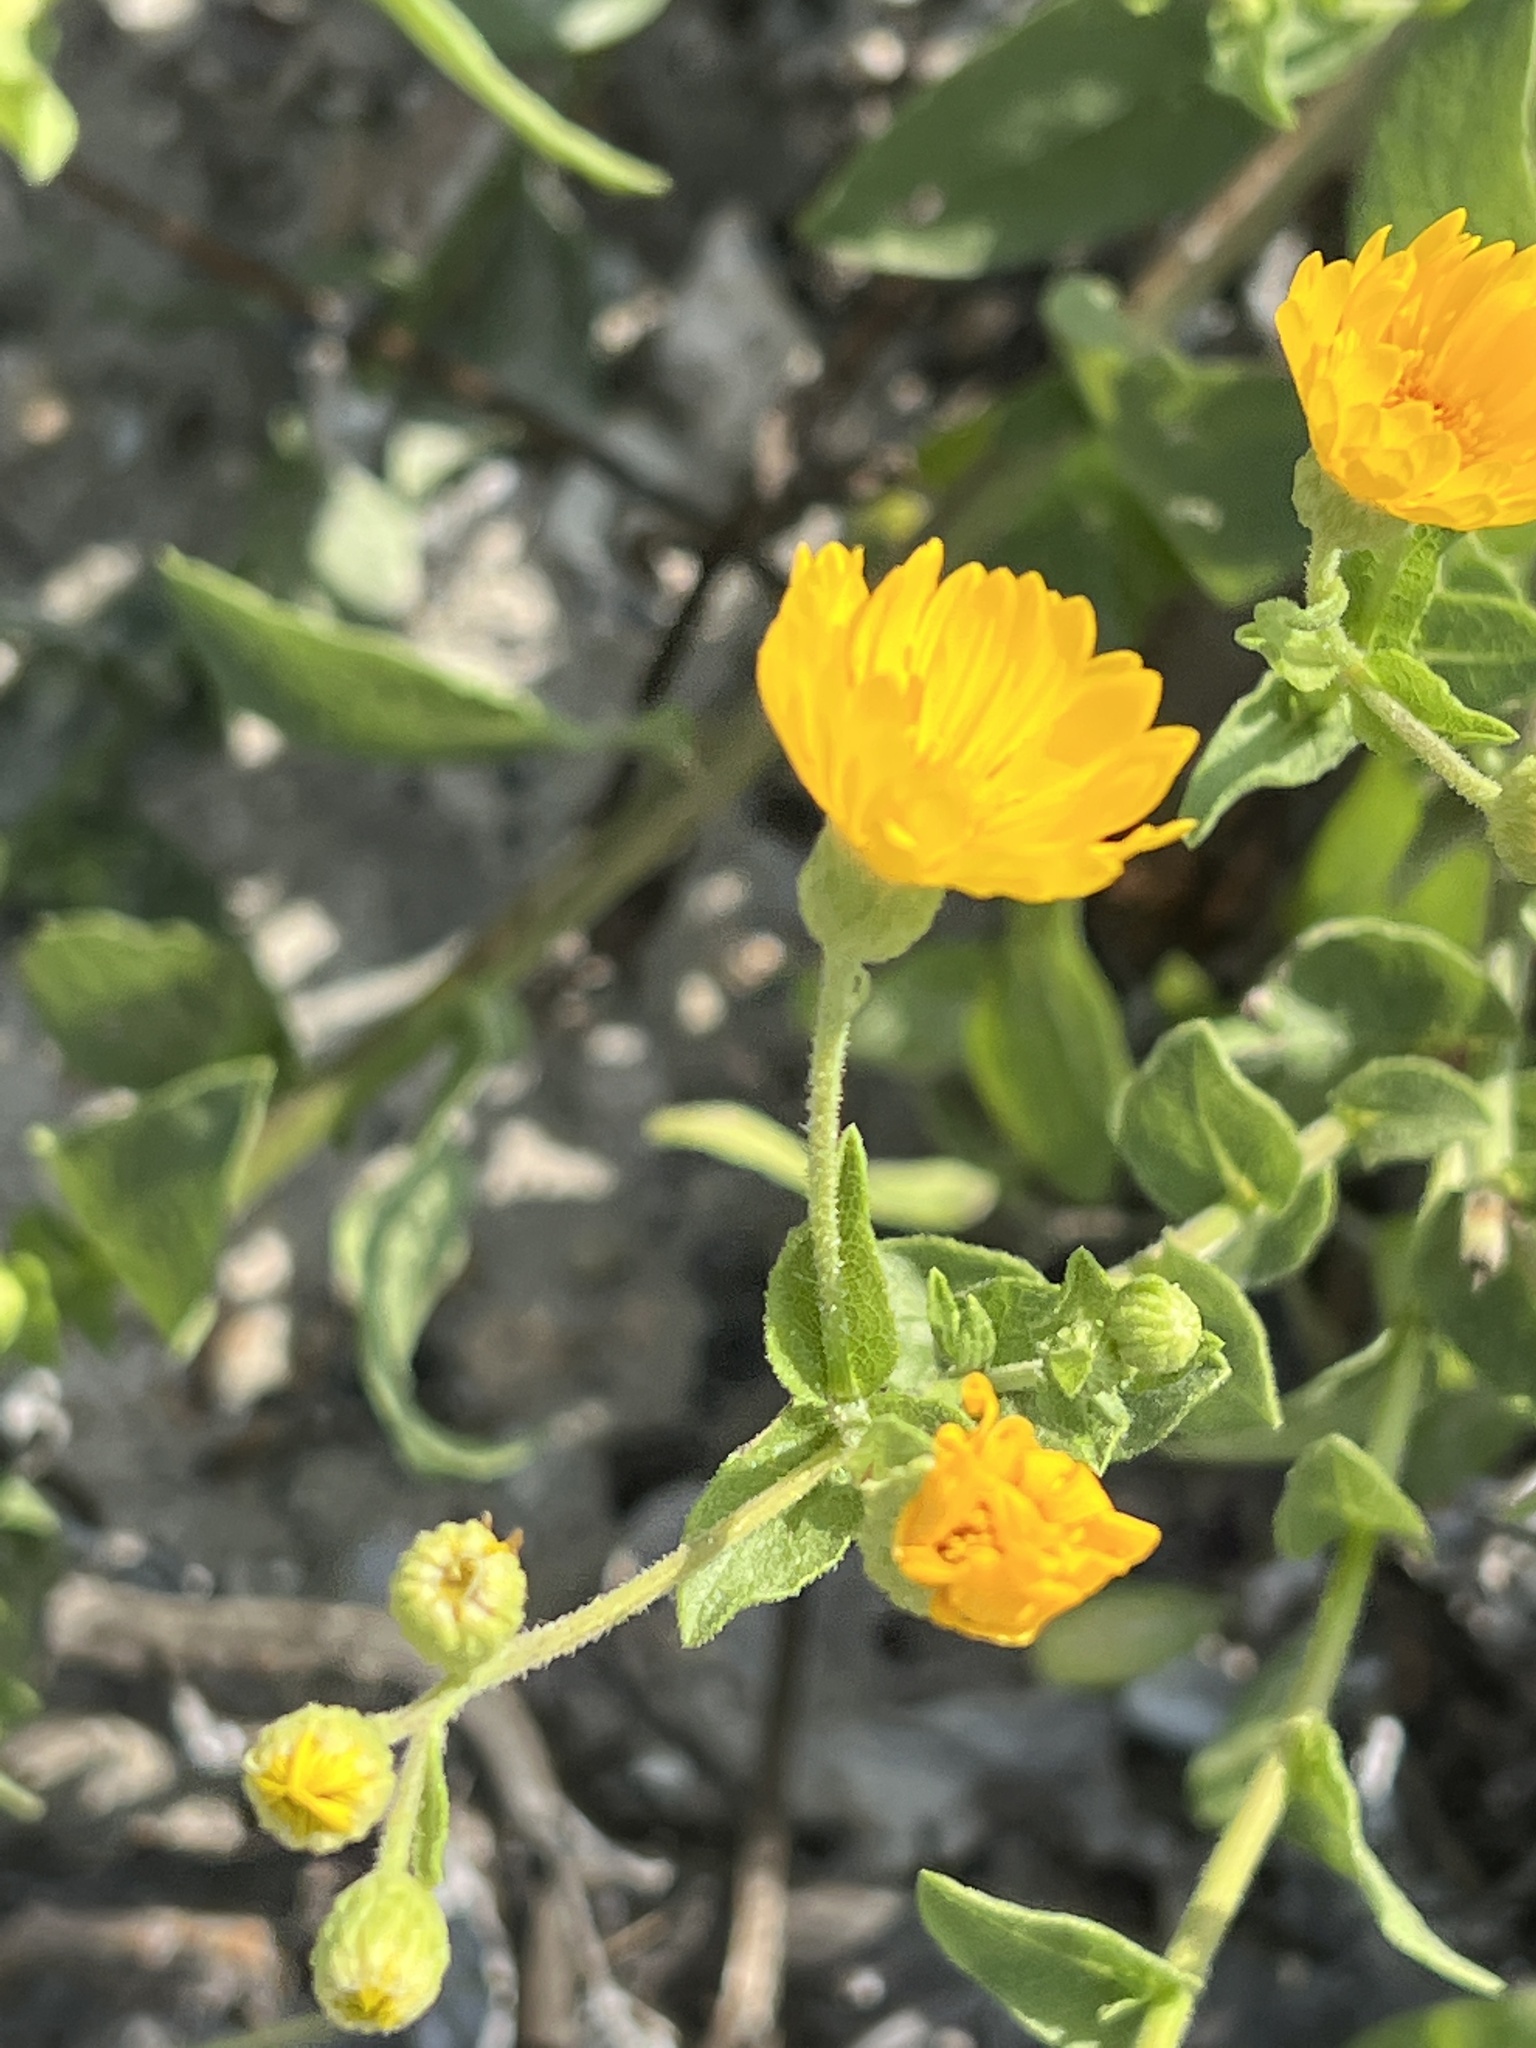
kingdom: Plantae
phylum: Tracheophyta
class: Magnoliopsida
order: Asterales
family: Asteraceae
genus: Heterotheca
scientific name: Heterotheca subaxillaris
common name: Camphorweed
